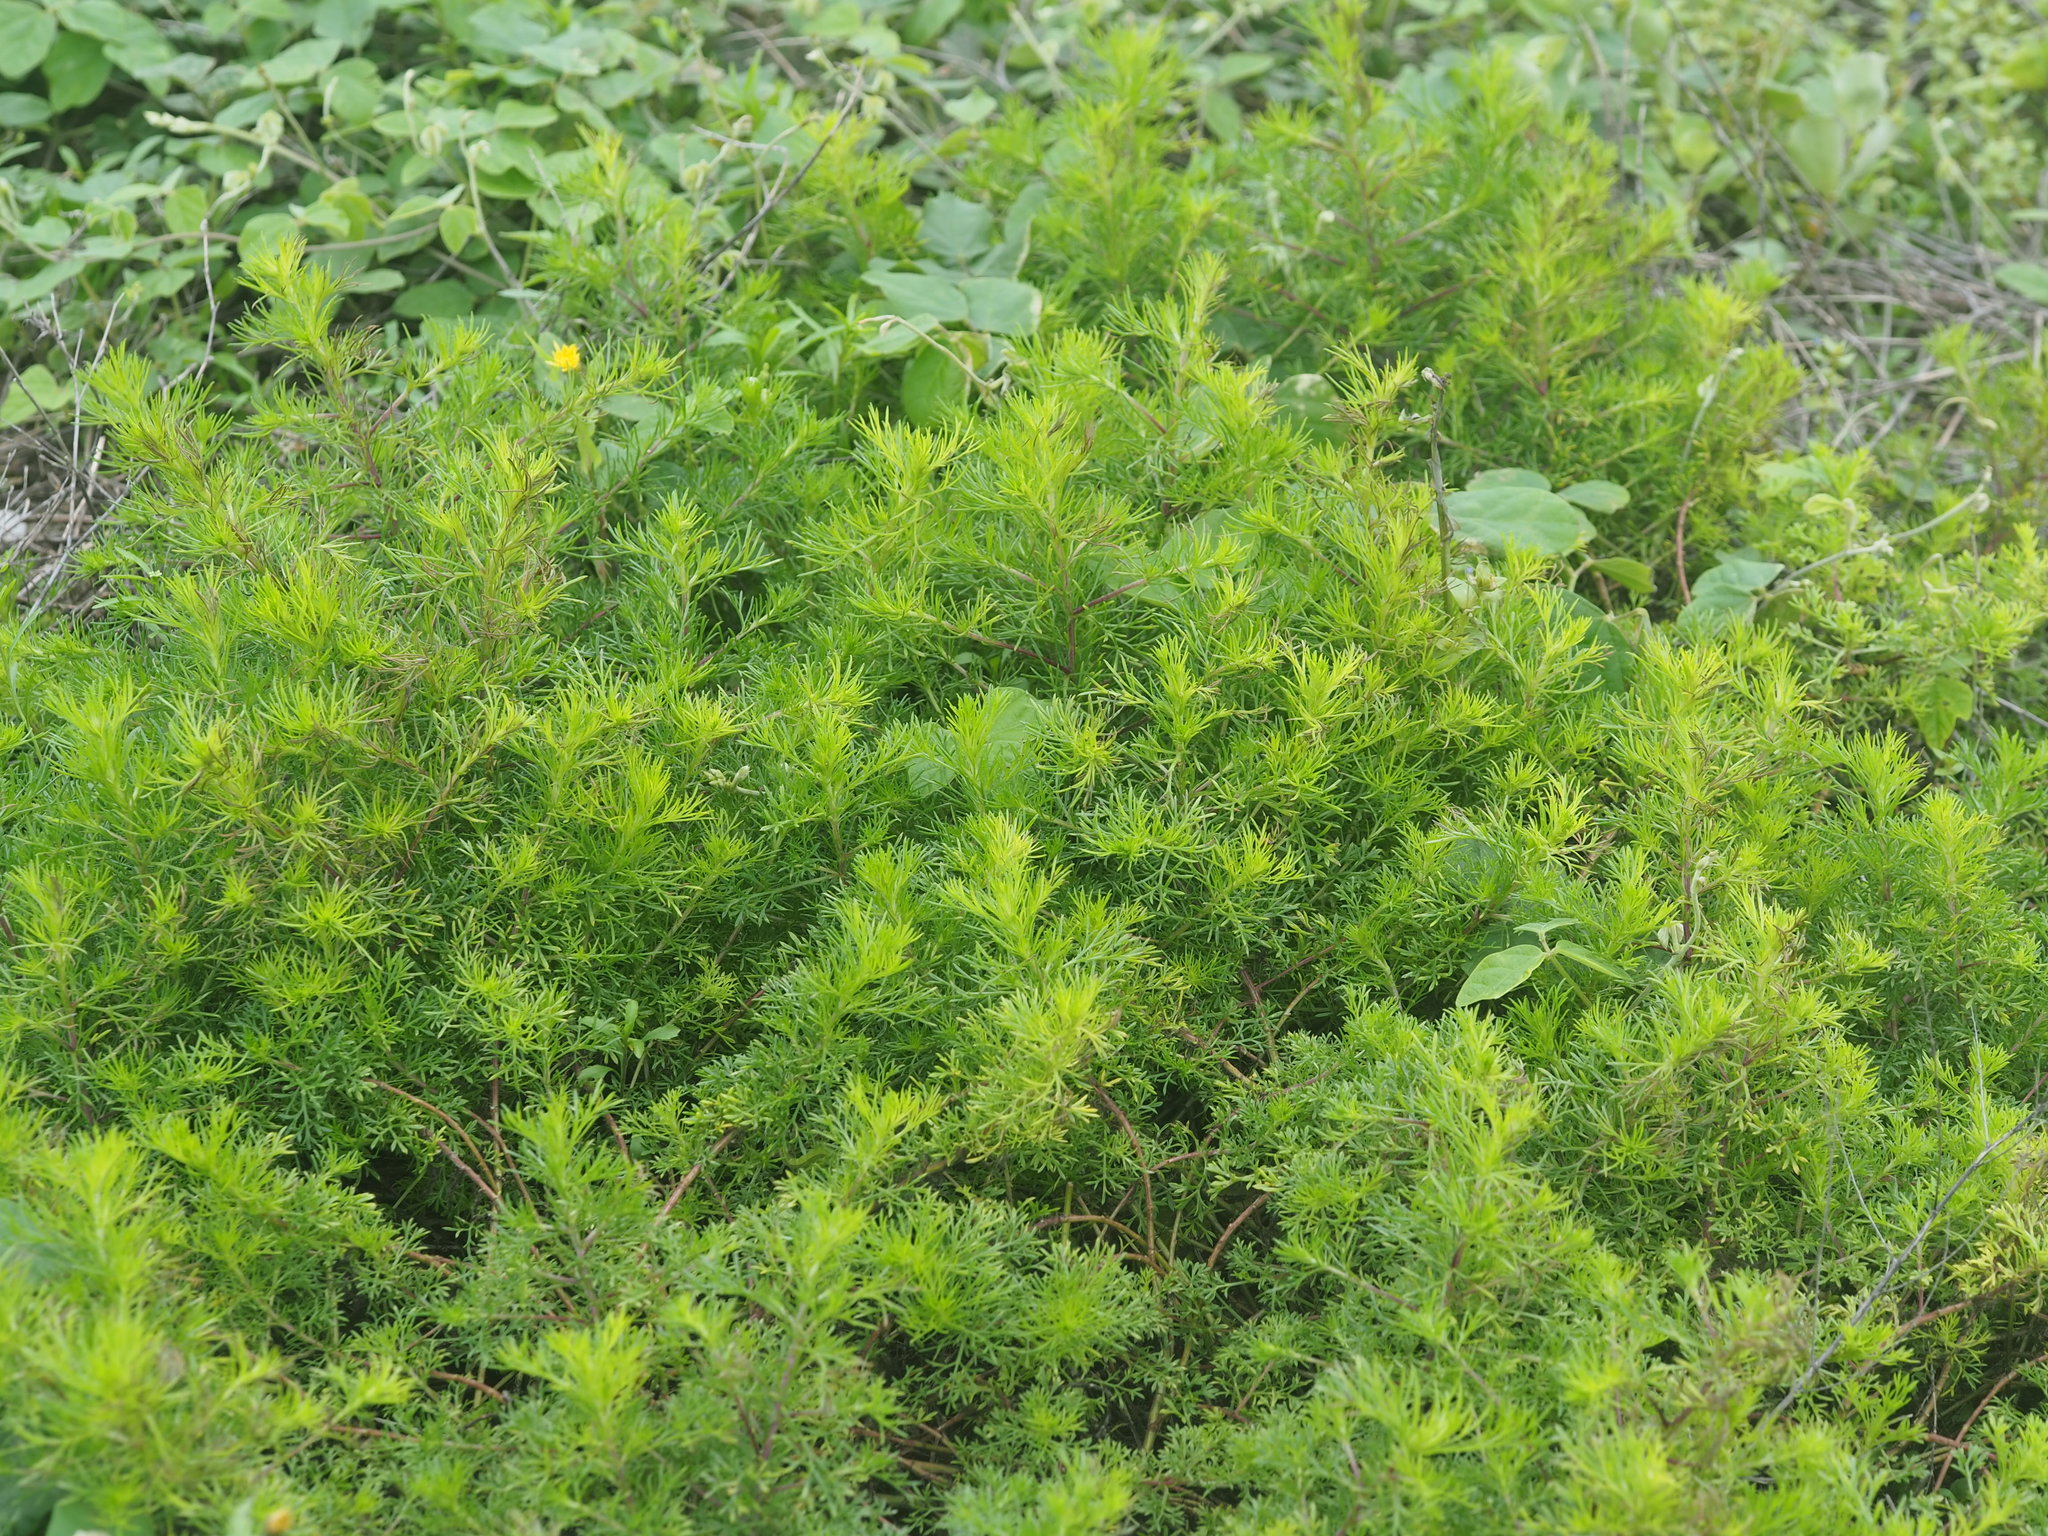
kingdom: Plantae
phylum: Tracheophyta
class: Magnoliopsida
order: Asterales
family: Asteraceae
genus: Artemisia
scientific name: Artemisia capillaris
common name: Yin-chen wormwood
